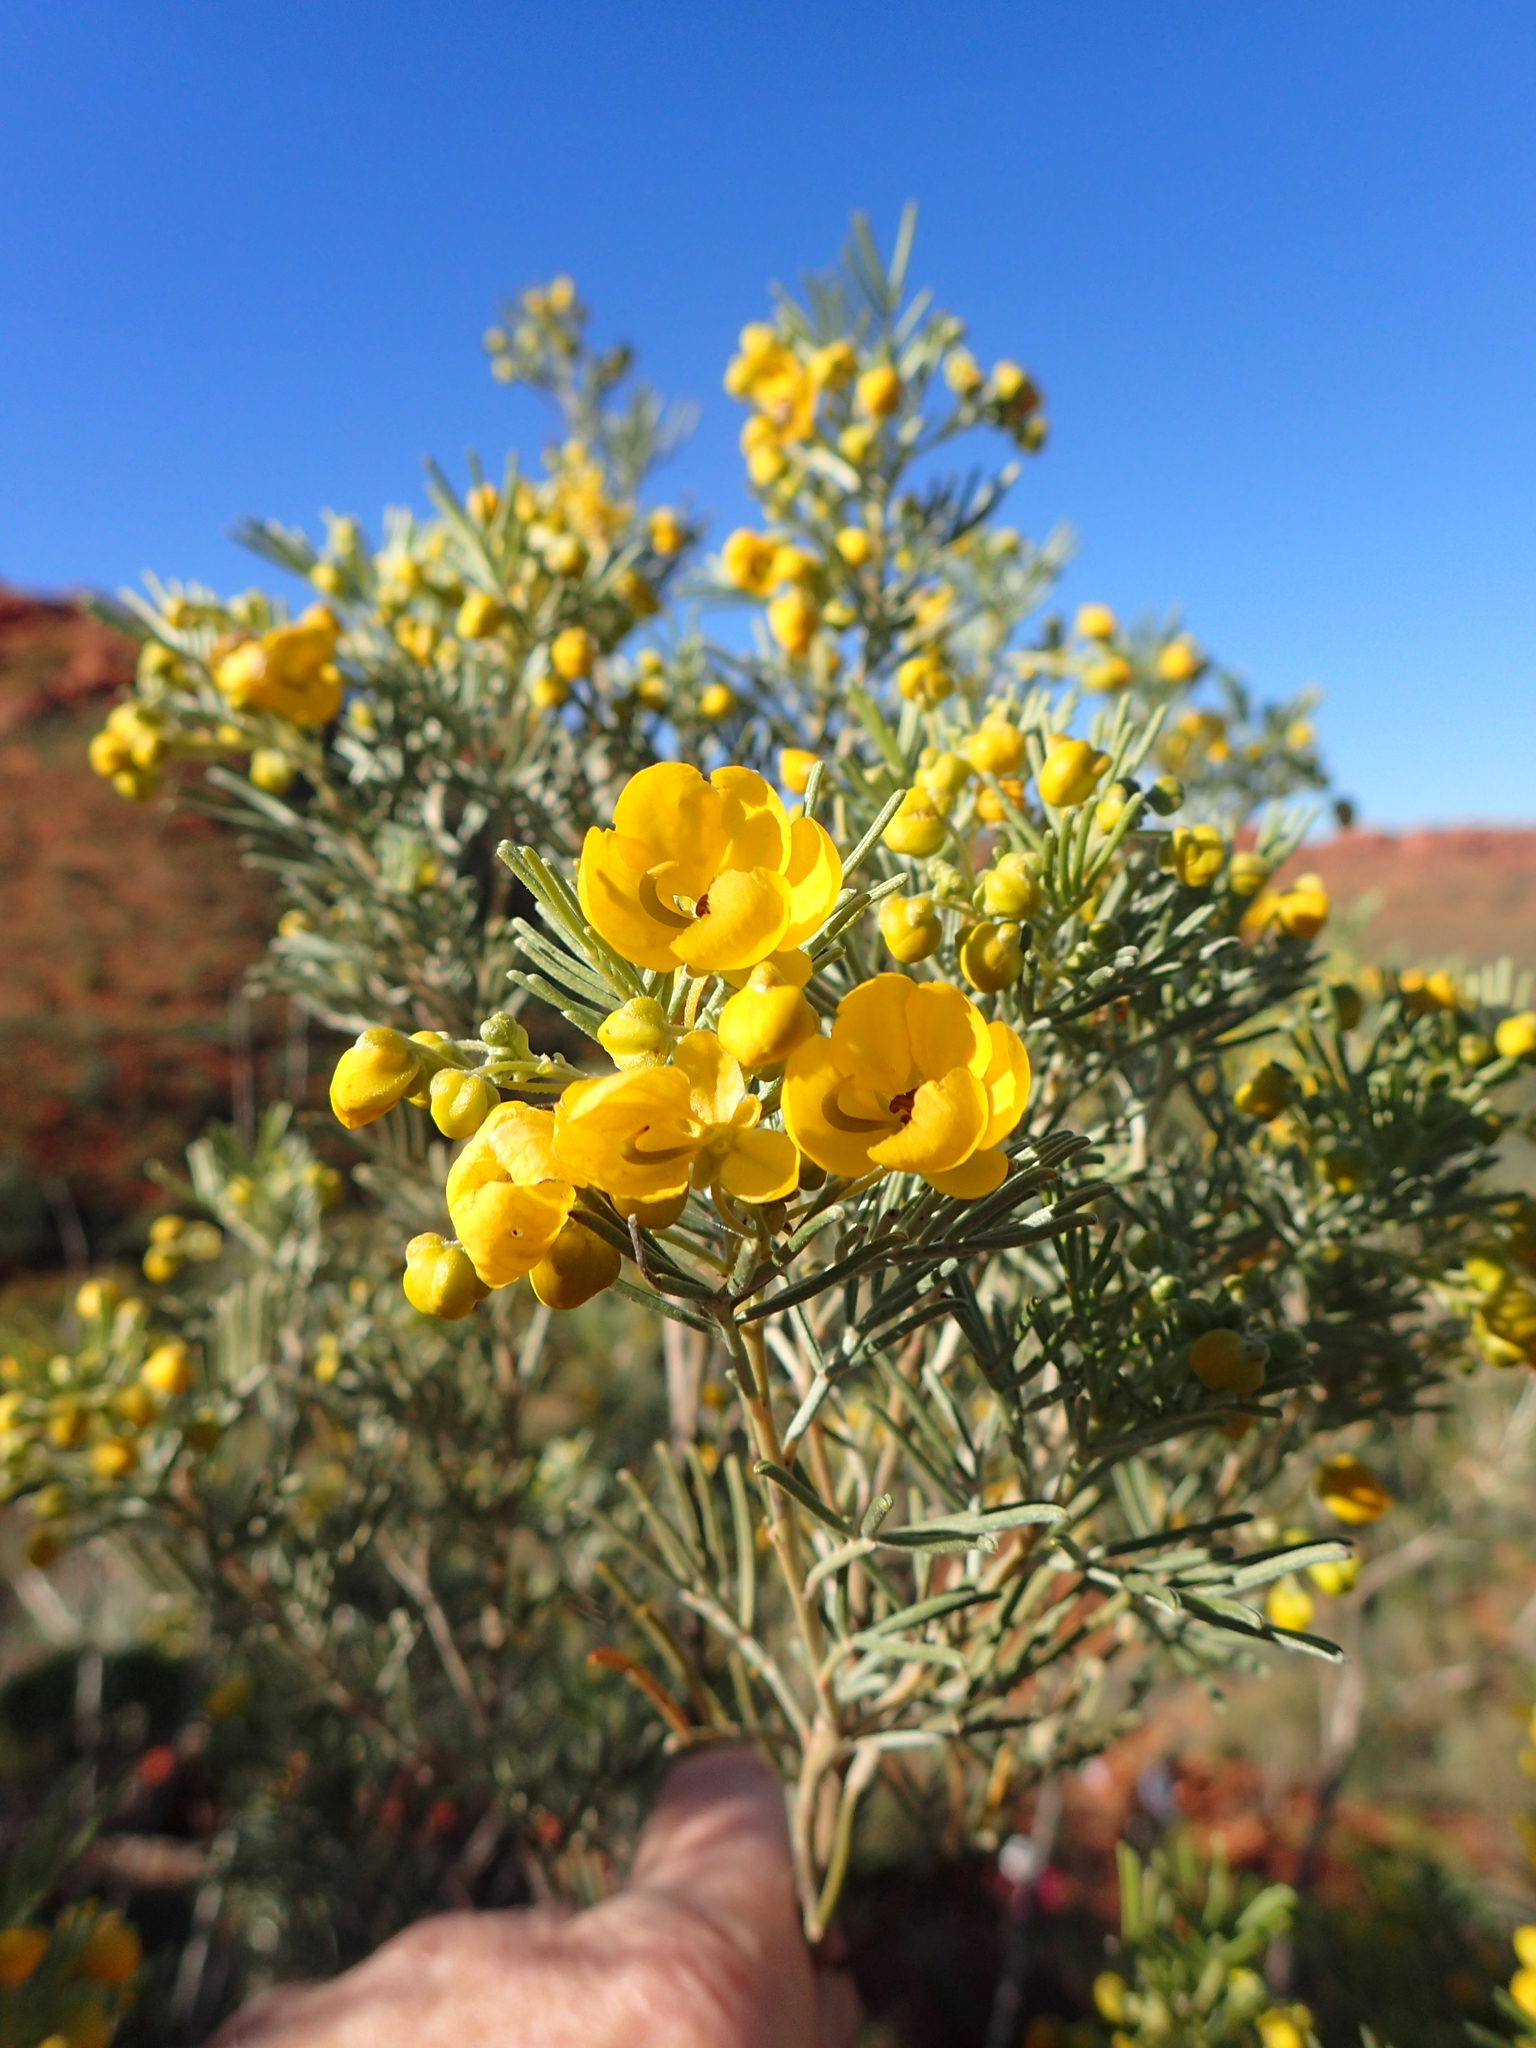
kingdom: Plantae
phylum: Tracheophyta
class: Magnoliopsida
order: Fabales
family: Fabaceae
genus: Senna
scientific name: Senna artemisioides
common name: Burnt-leaved acacia
